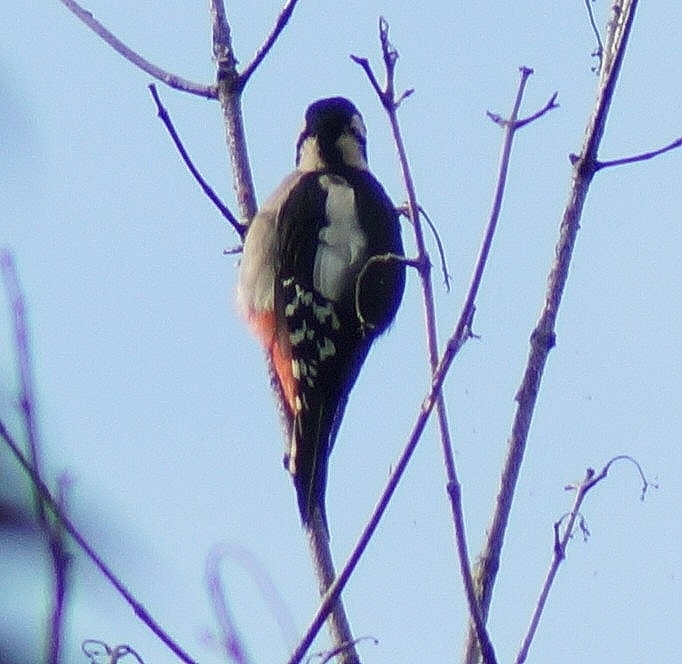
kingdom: Animalia
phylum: Chordata
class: Aves
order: Piciformes
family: Picidae
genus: Dendrocopos
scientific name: Dendrocopos major
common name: Great spotted woodpecker
